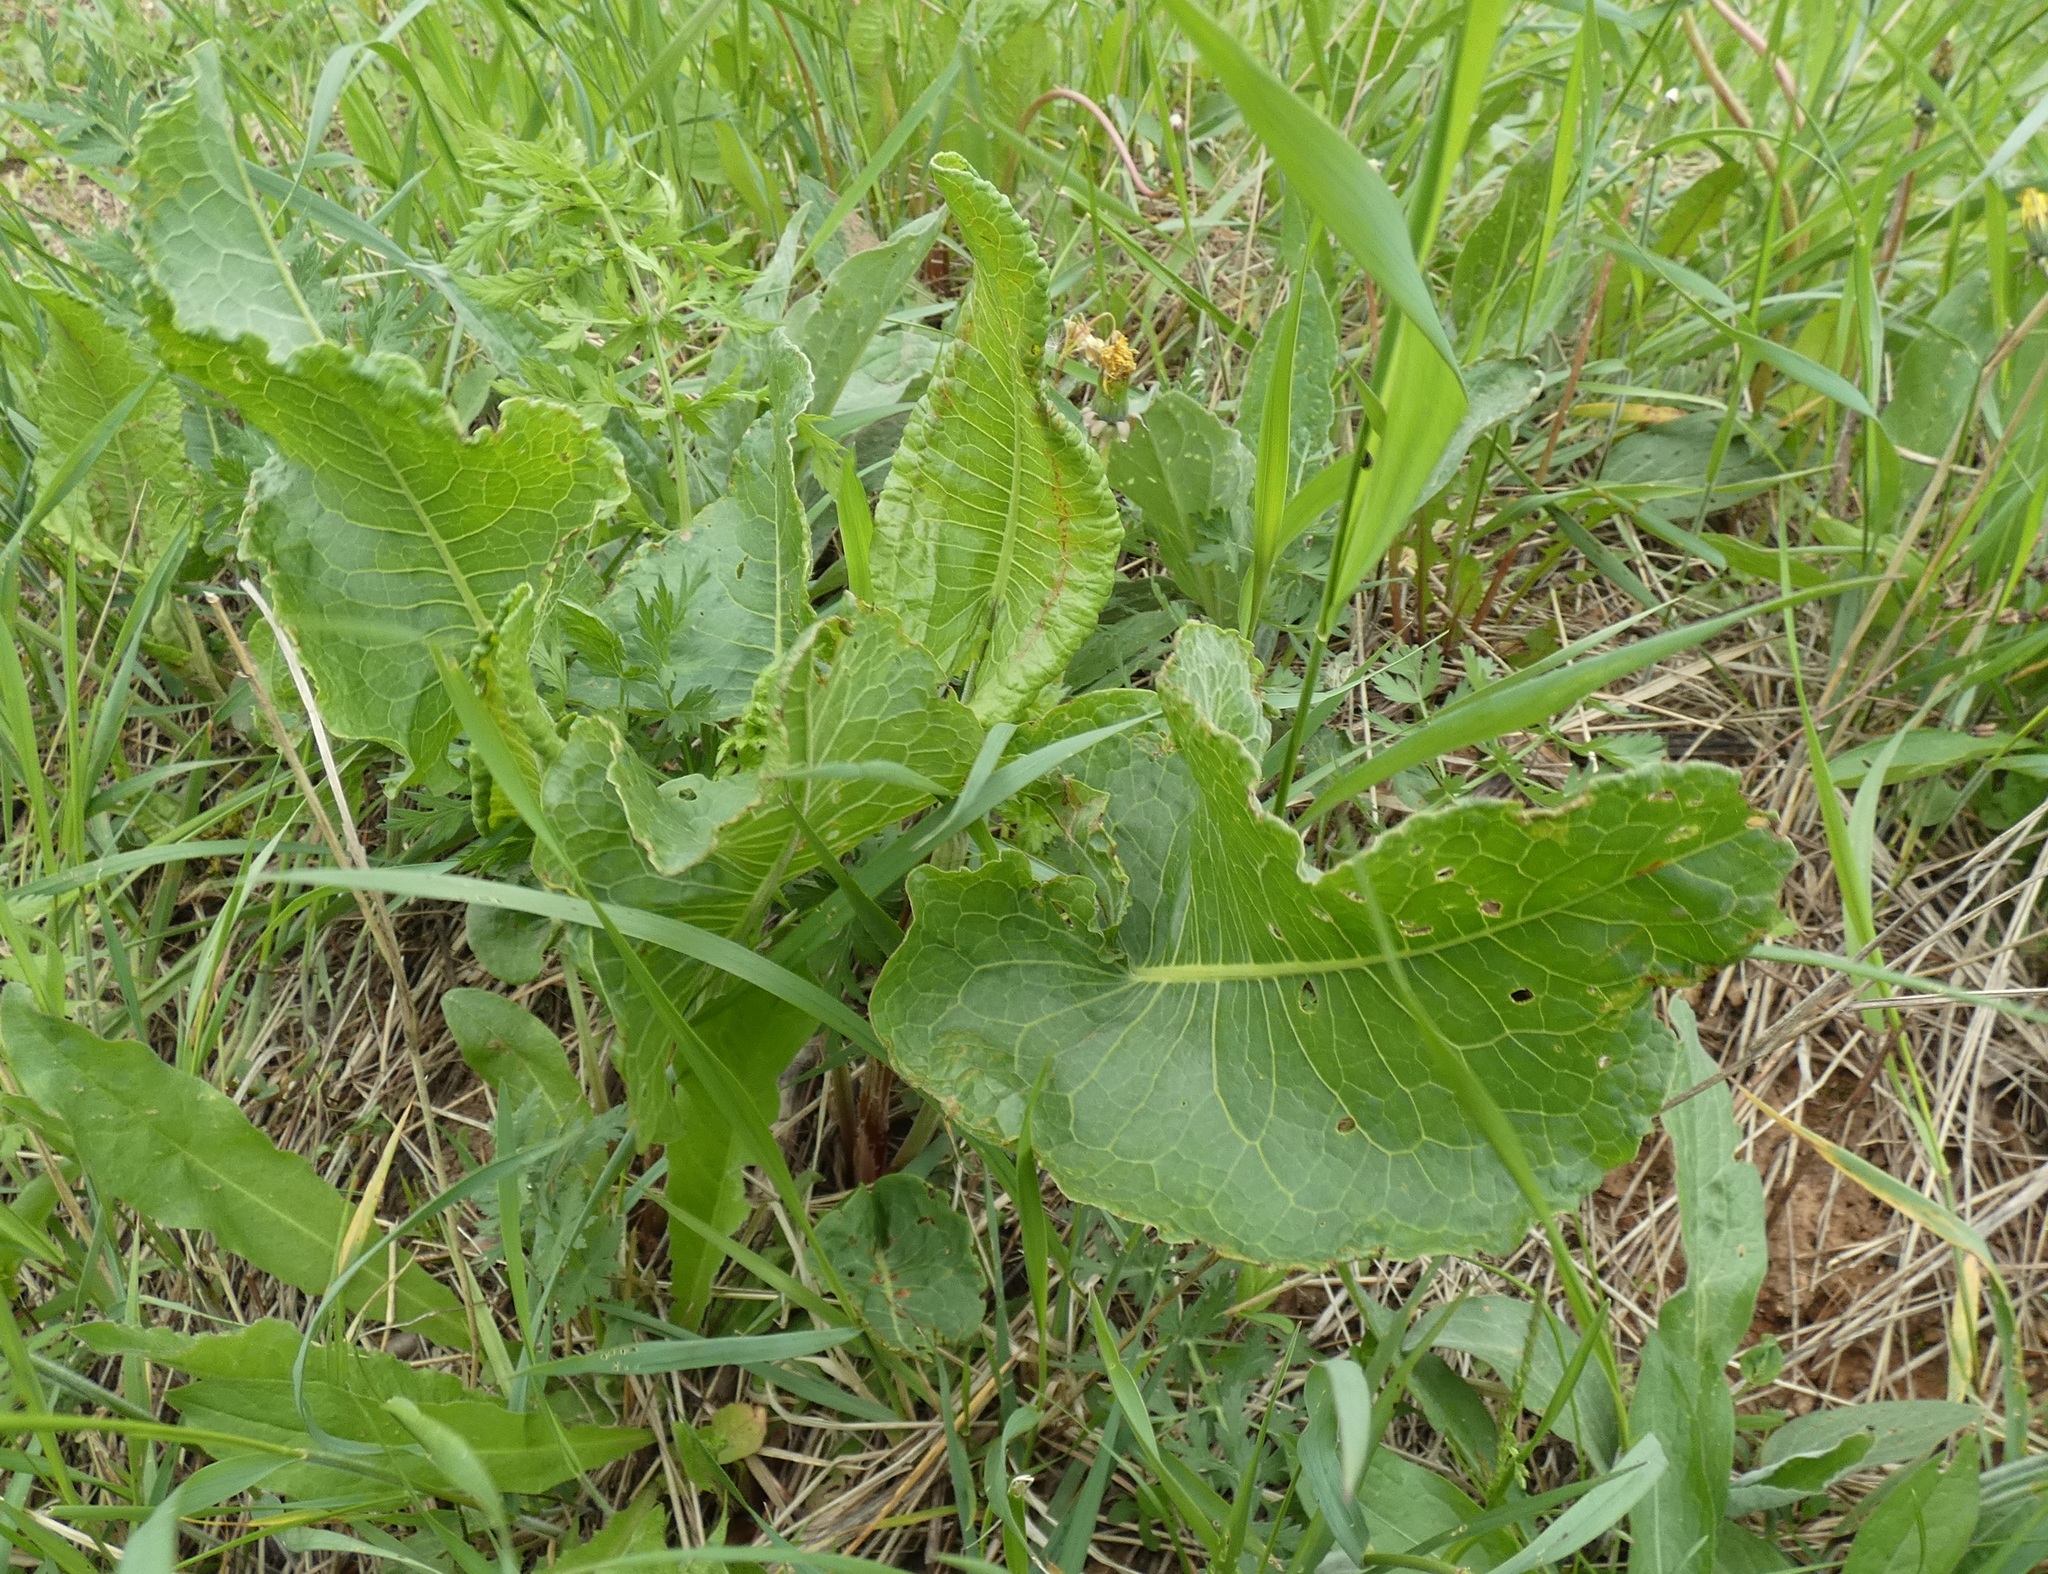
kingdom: Plantae
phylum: Tracheophyta
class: Magnoliopsida
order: Caryophyllales
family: Polygonaceae
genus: Rumex
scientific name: Rumex confertus
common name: Russian dock
